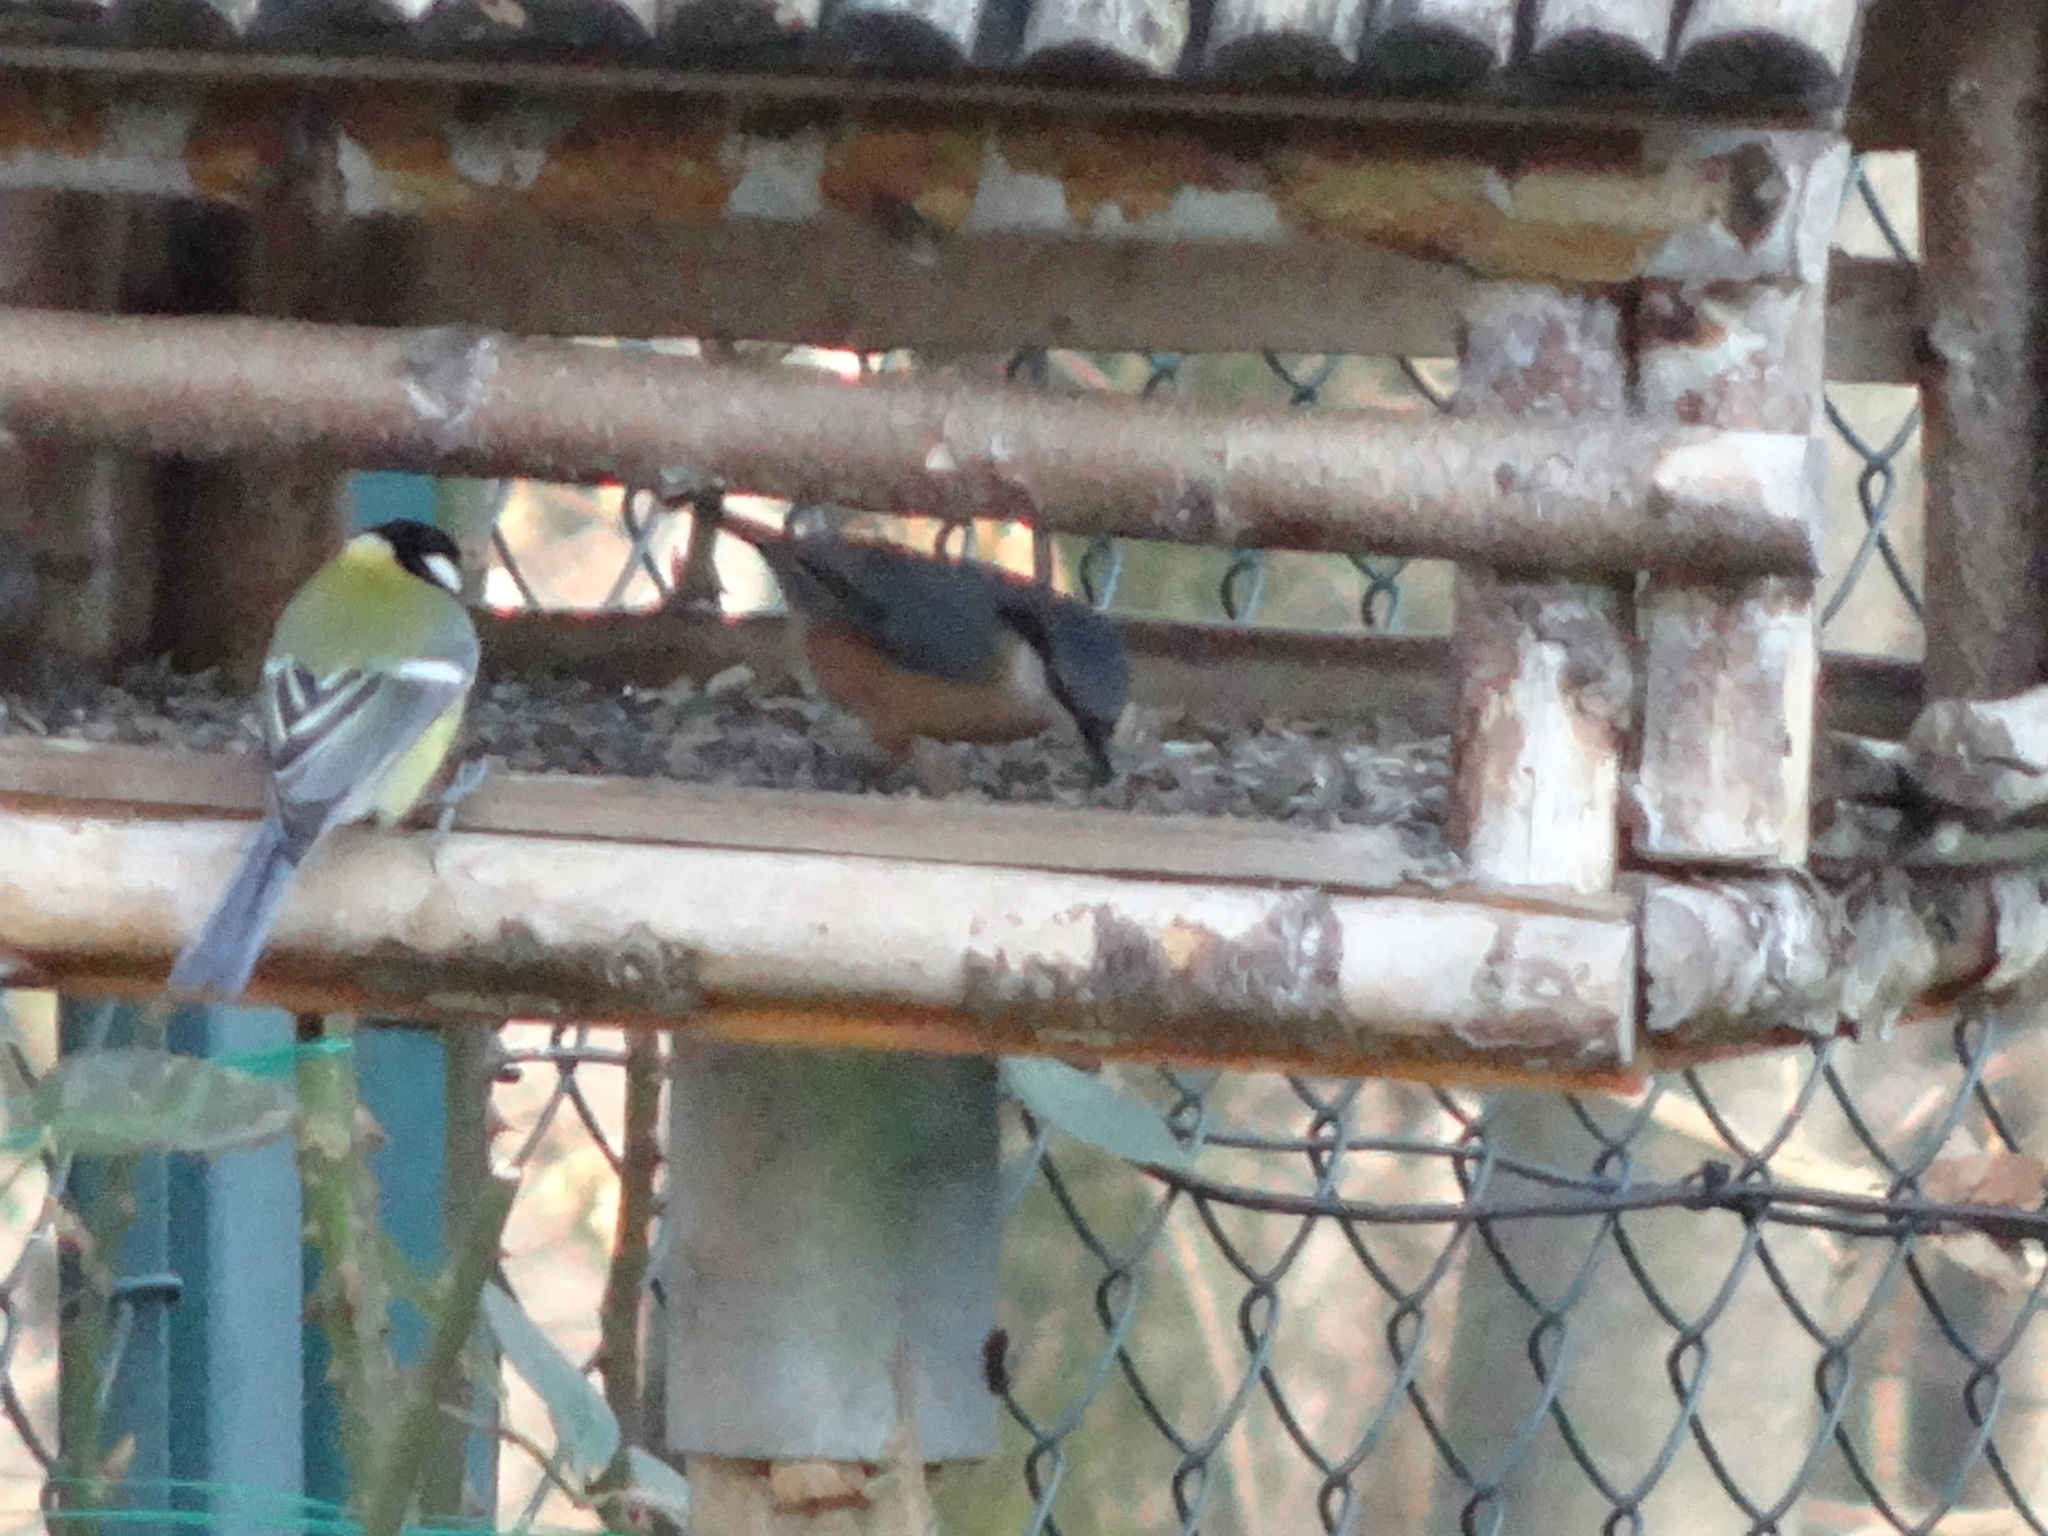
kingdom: Animalia
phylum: Chordata
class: Aves
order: Passeriformes
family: Sittidae
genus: Sitta
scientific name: Sitta europaea
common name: Eurasian nuthatch
